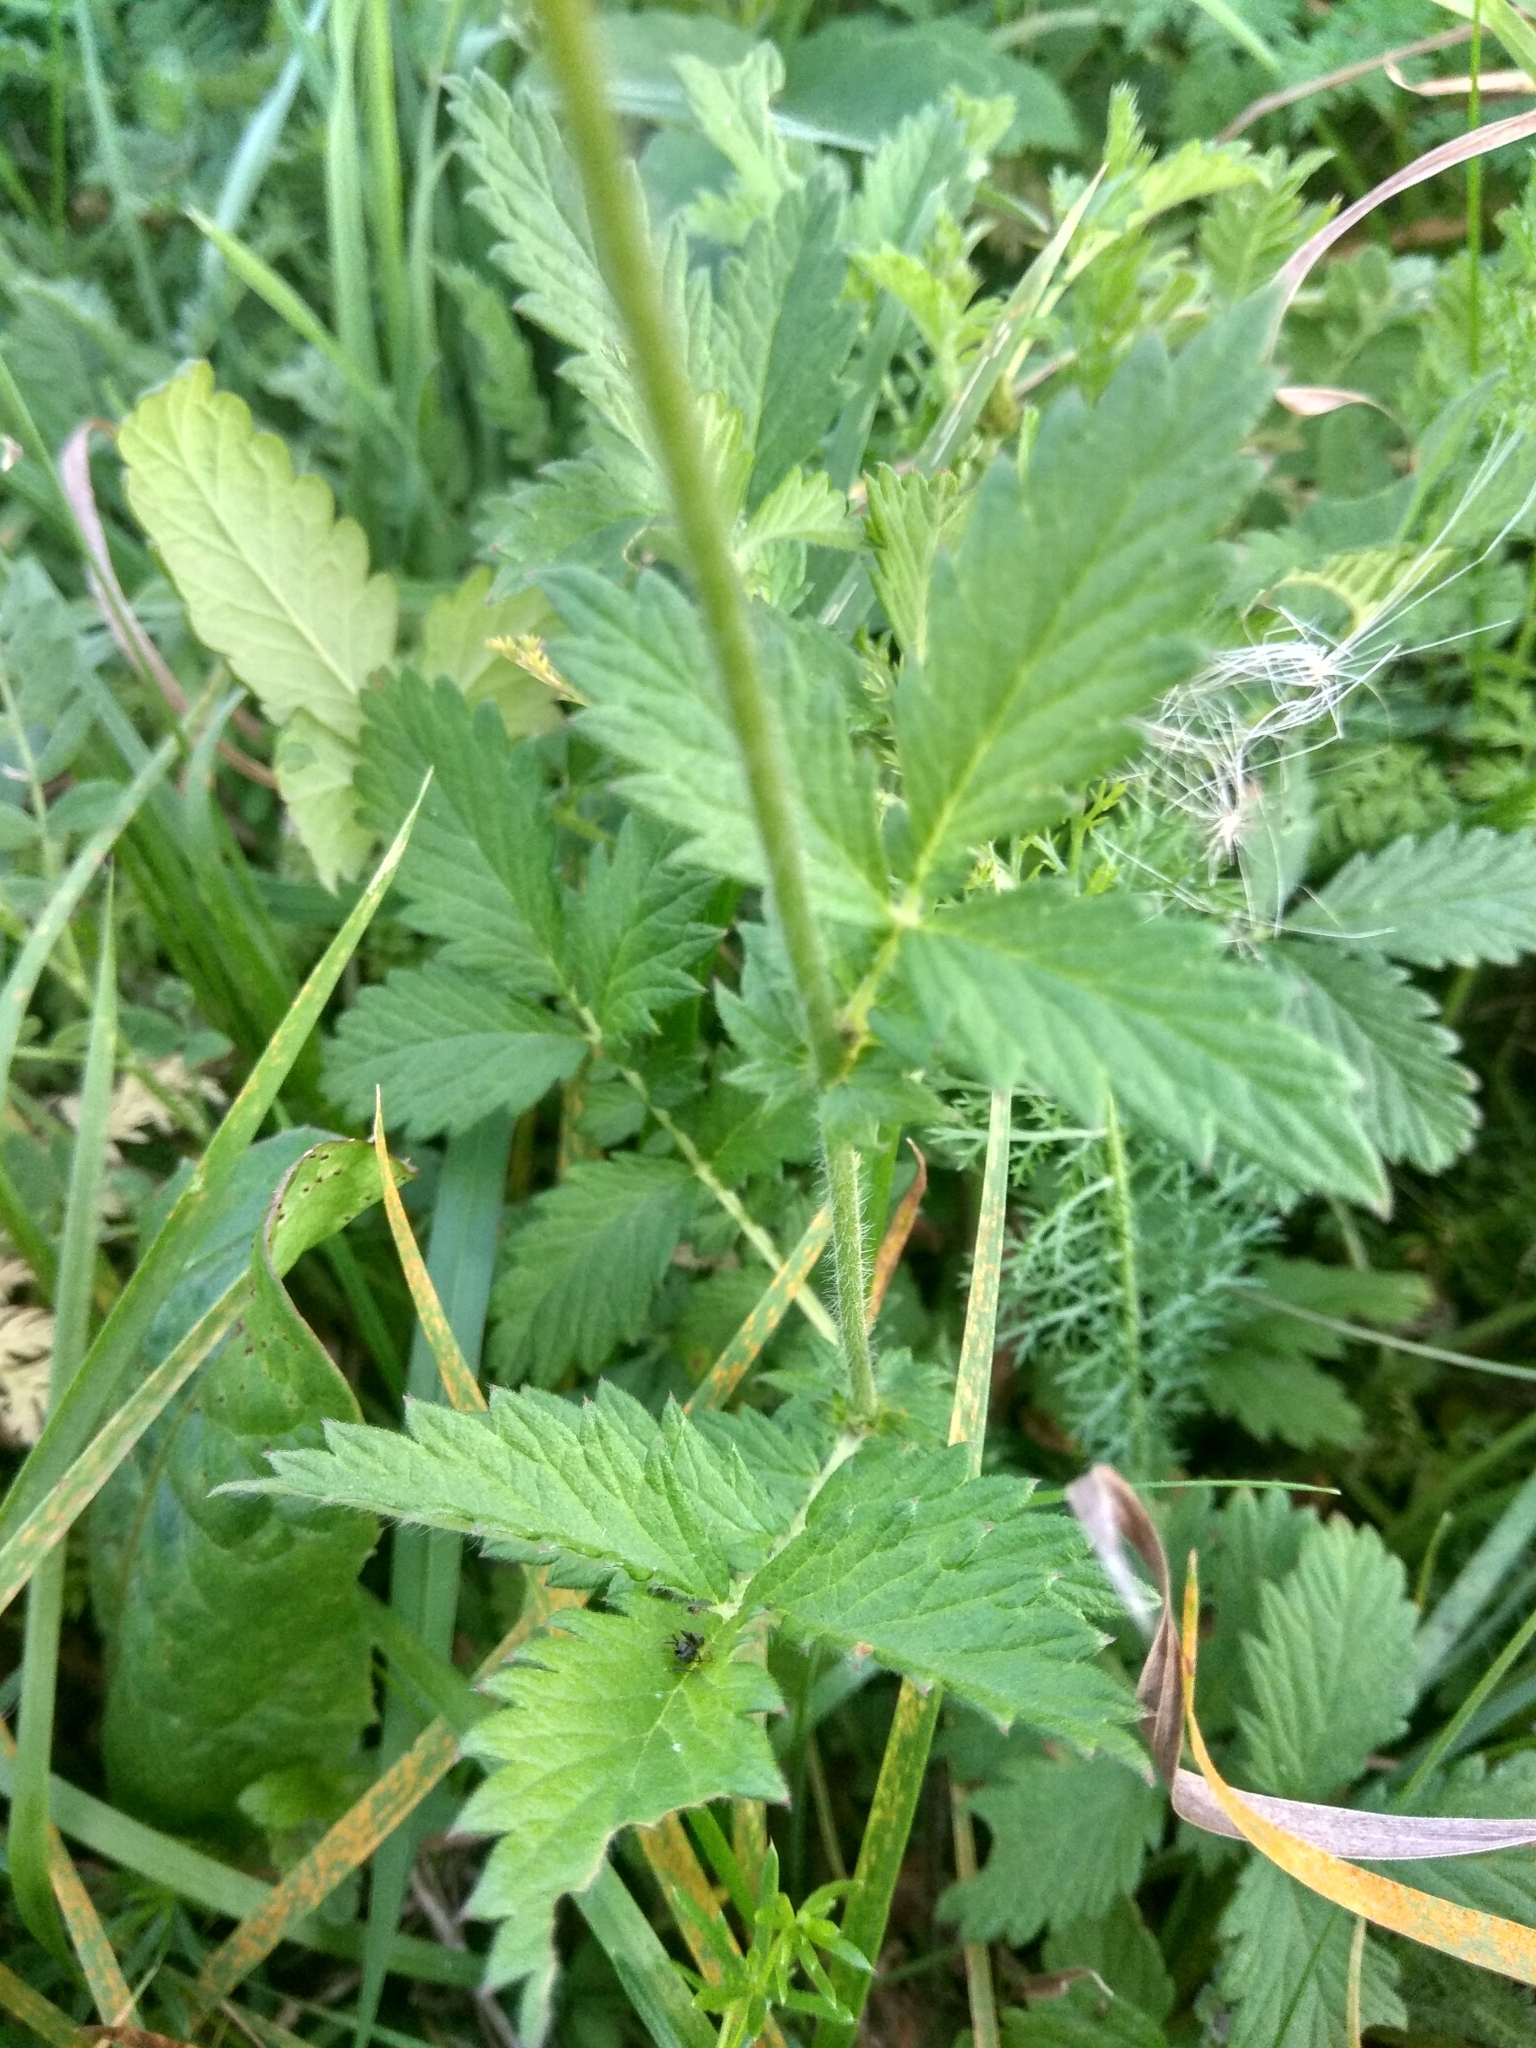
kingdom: Plantae
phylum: Tracheophyta
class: Magnoliopsida
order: Rosales
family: Rosaceae
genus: Agrimonia
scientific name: Agrimonia eupatoria
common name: Agrimony
